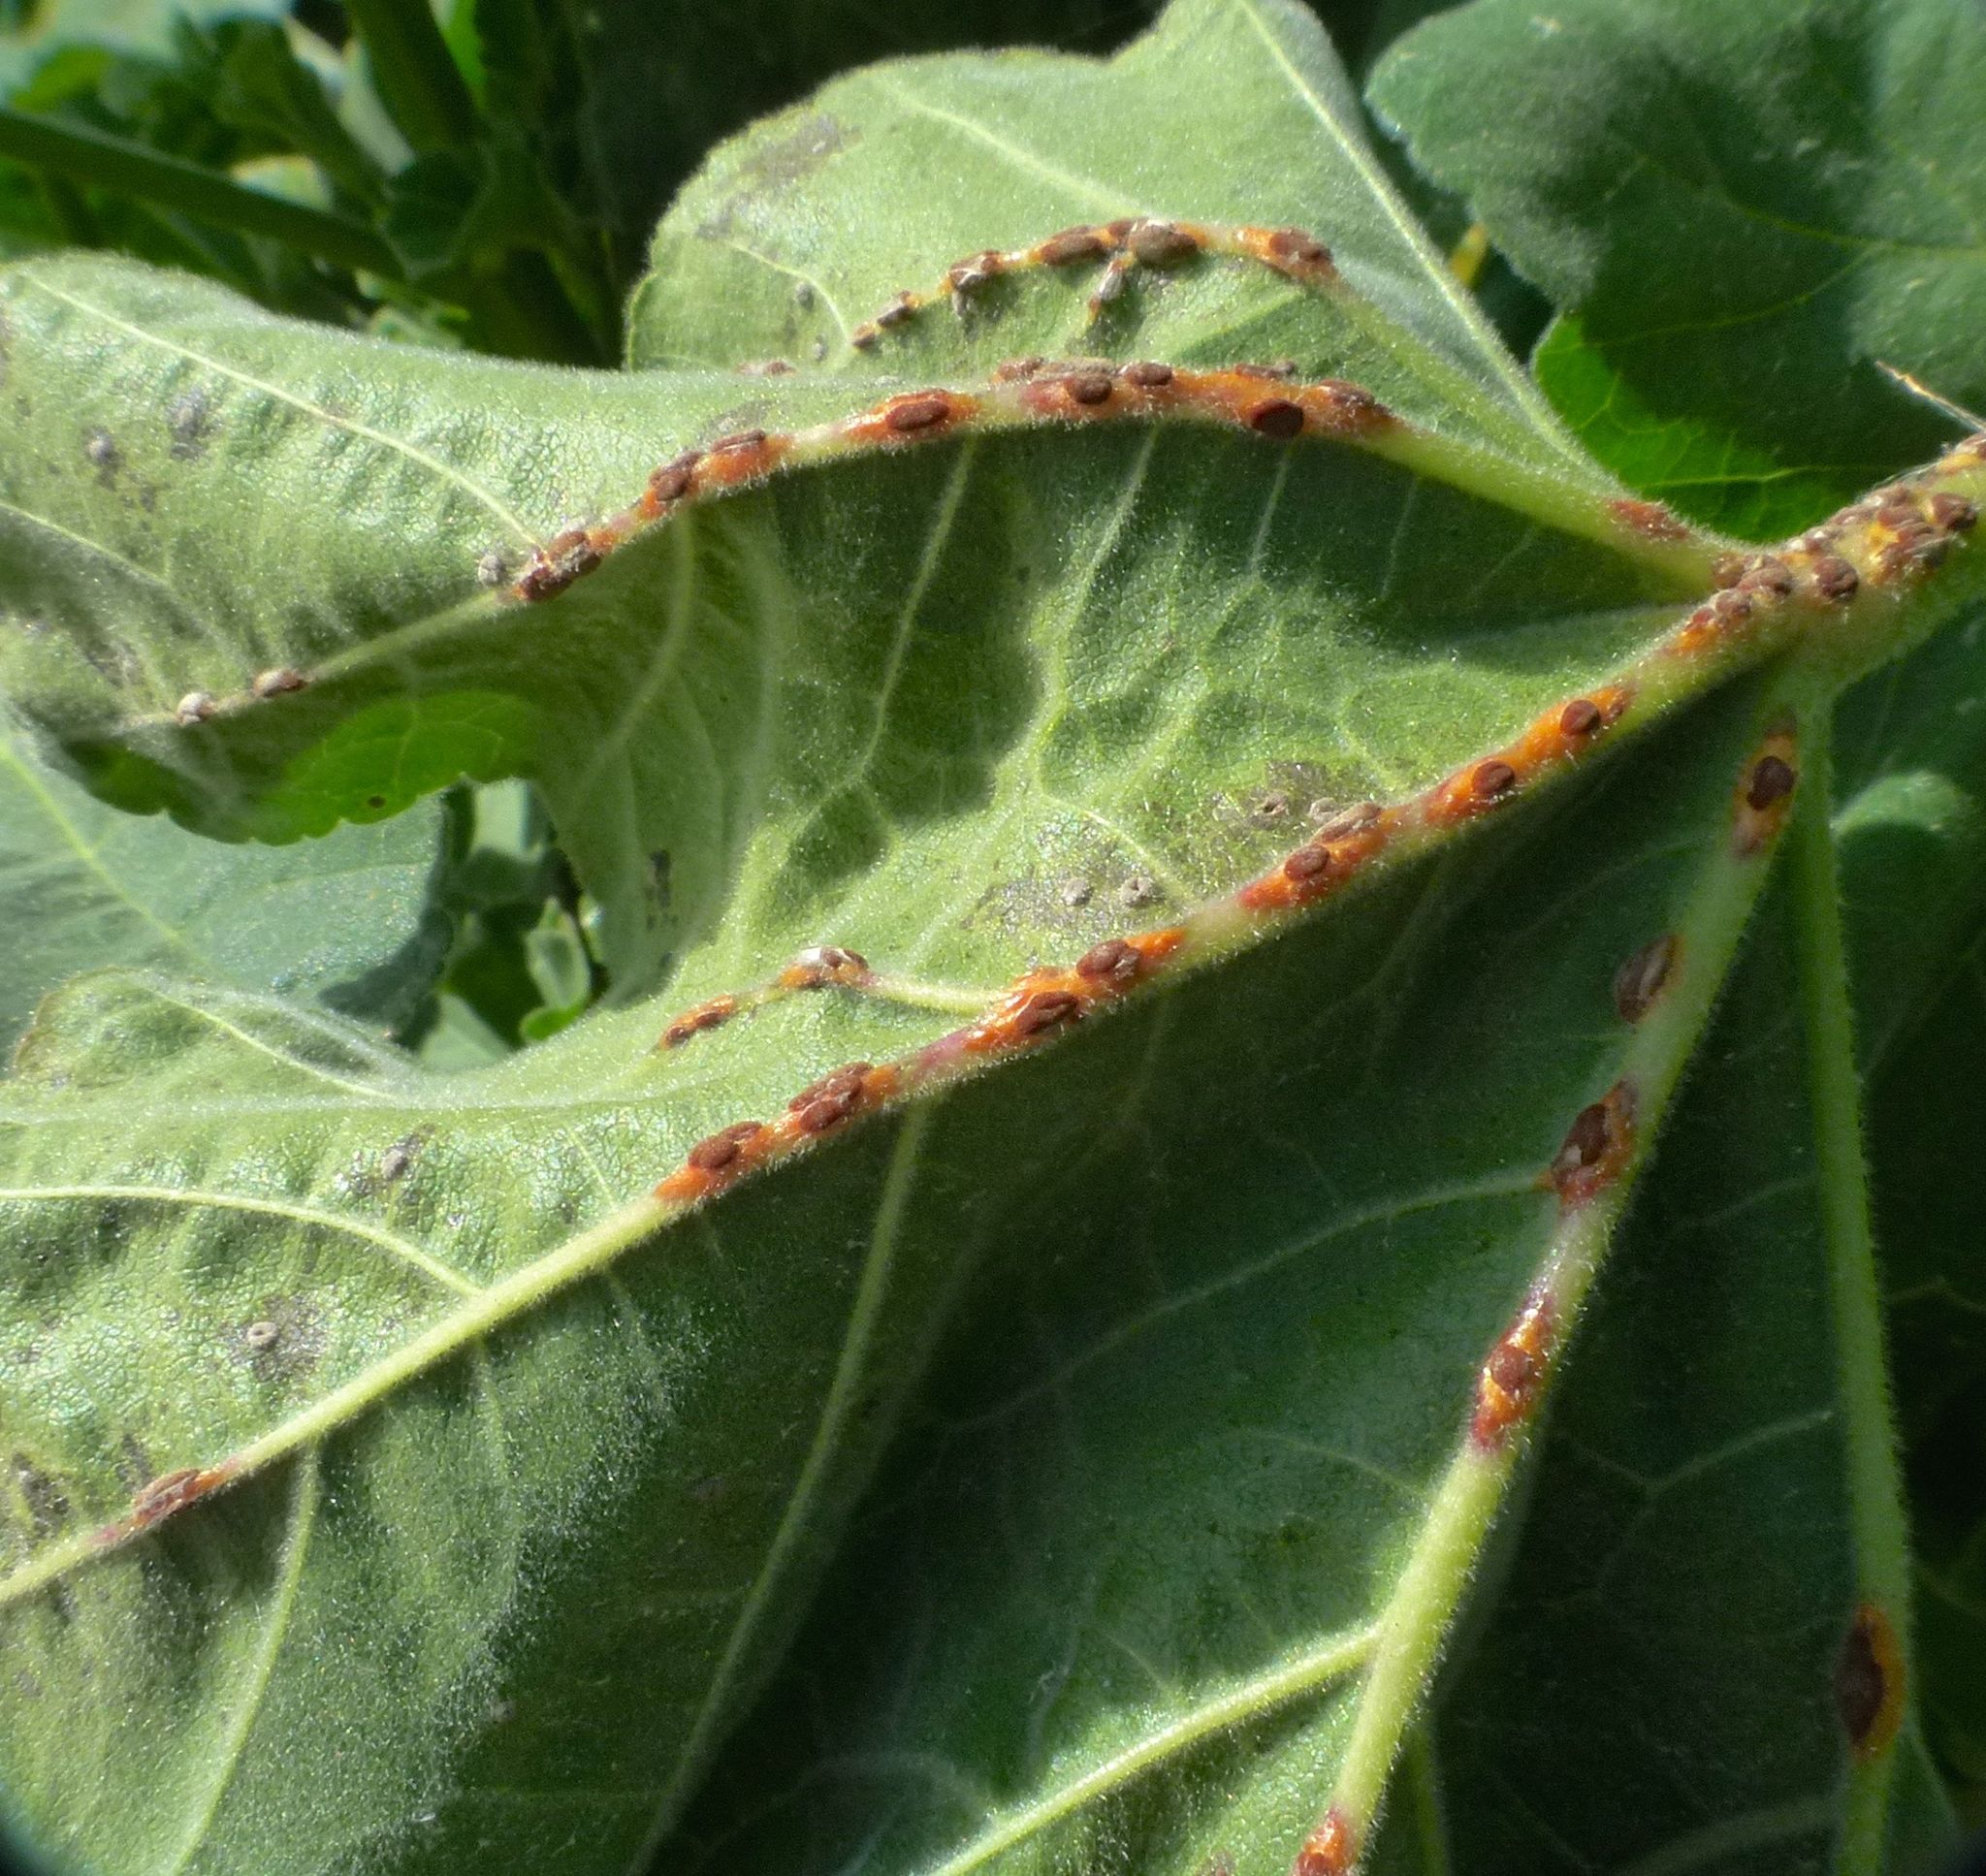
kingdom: Fungi
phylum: Basidiomycota
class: Pucciniomycetes
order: Pucciniales
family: Pucciniaceae
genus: Puccinia
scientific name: Puccinia malvacearum
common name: Hollyhock rust
